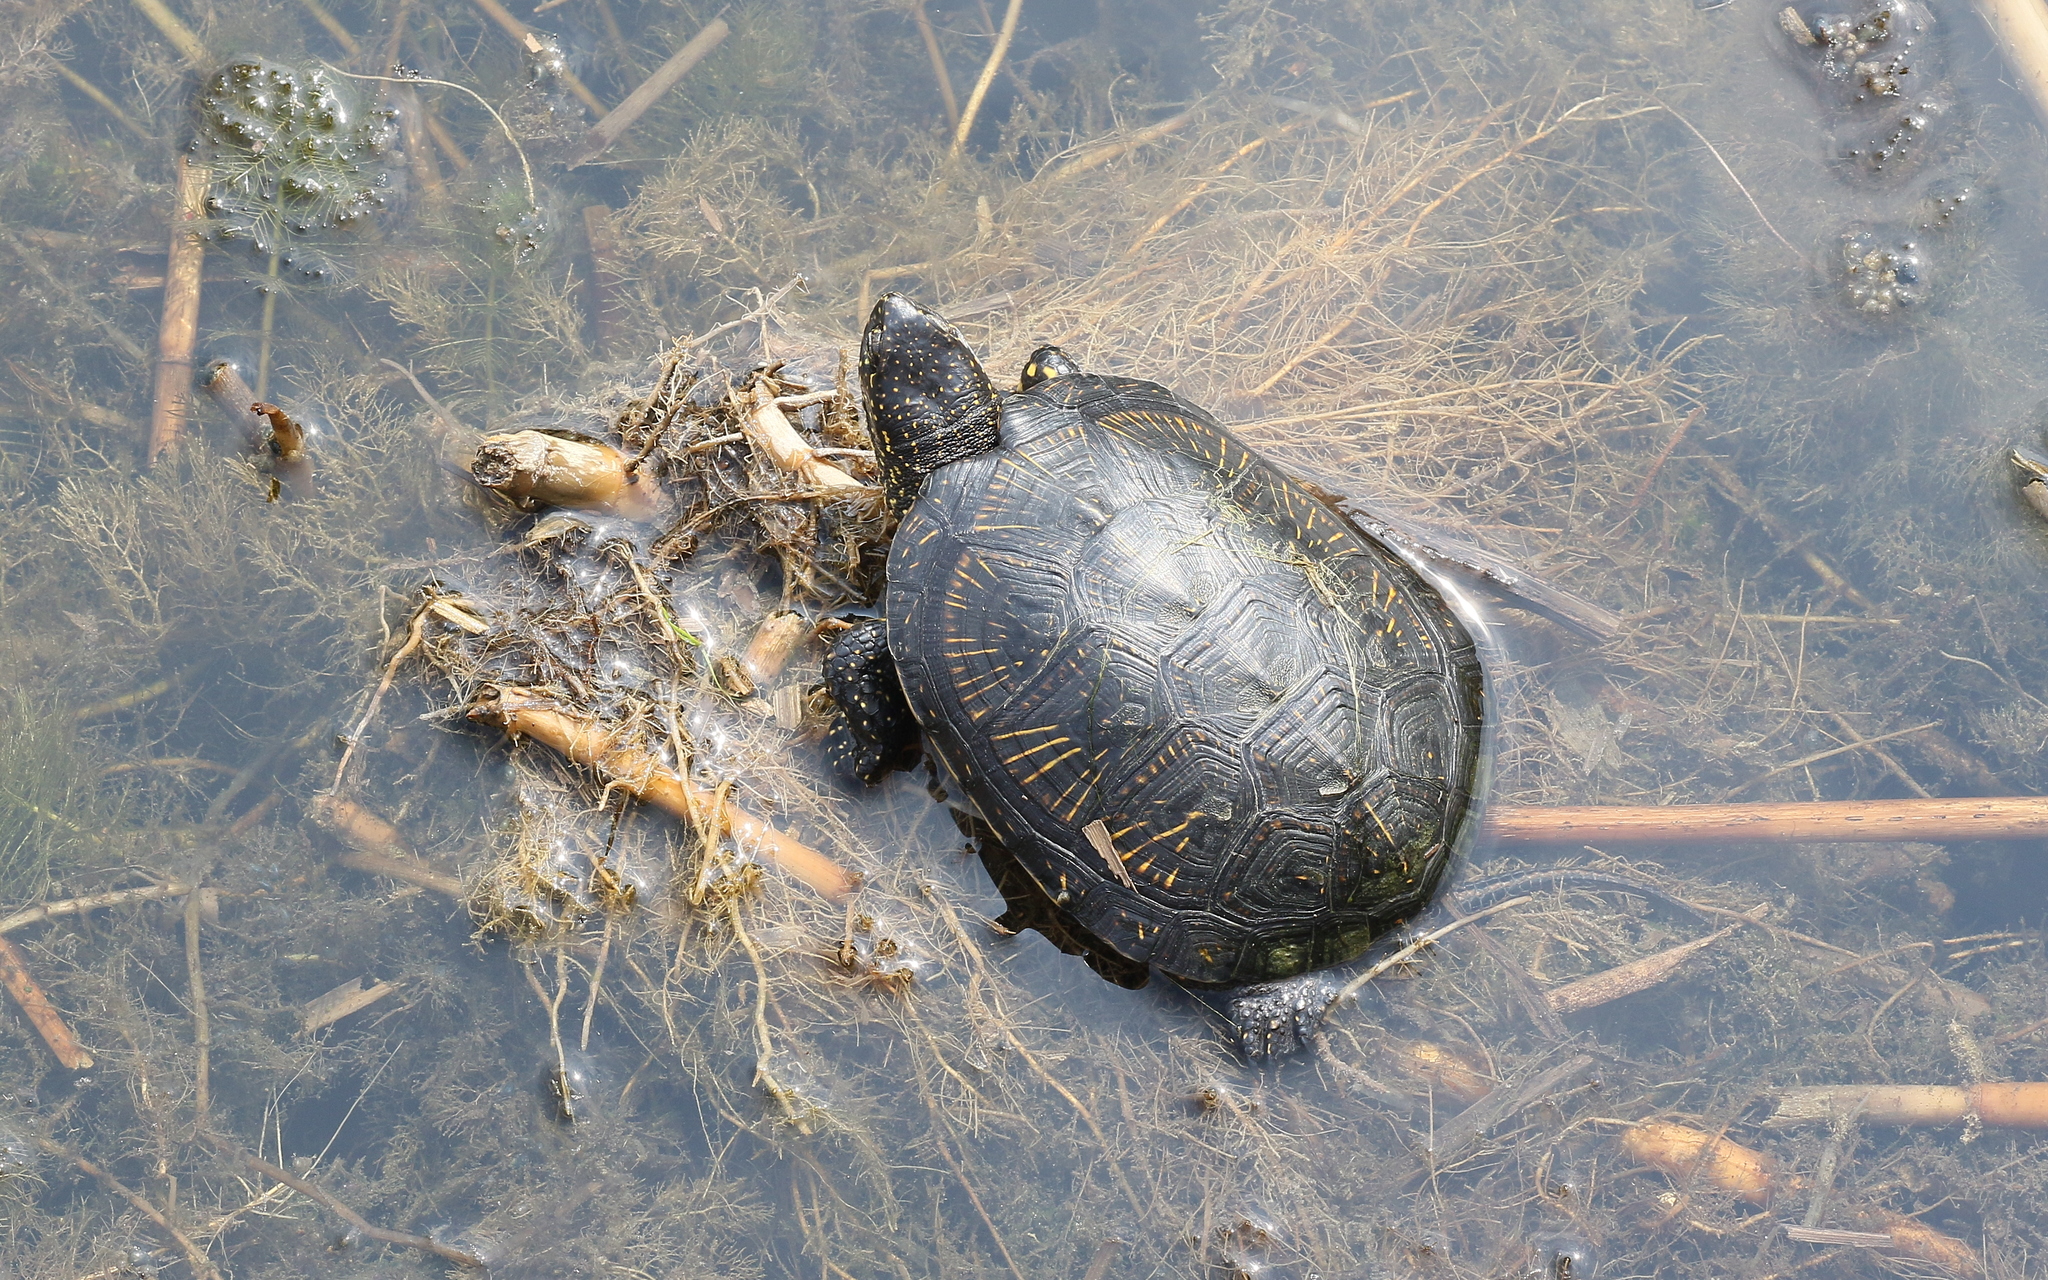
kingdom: Animalia
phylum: Chordata
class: Testudines
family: Emydidae
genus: Emys
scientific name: Emys orbicularis
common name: European pond turtle
